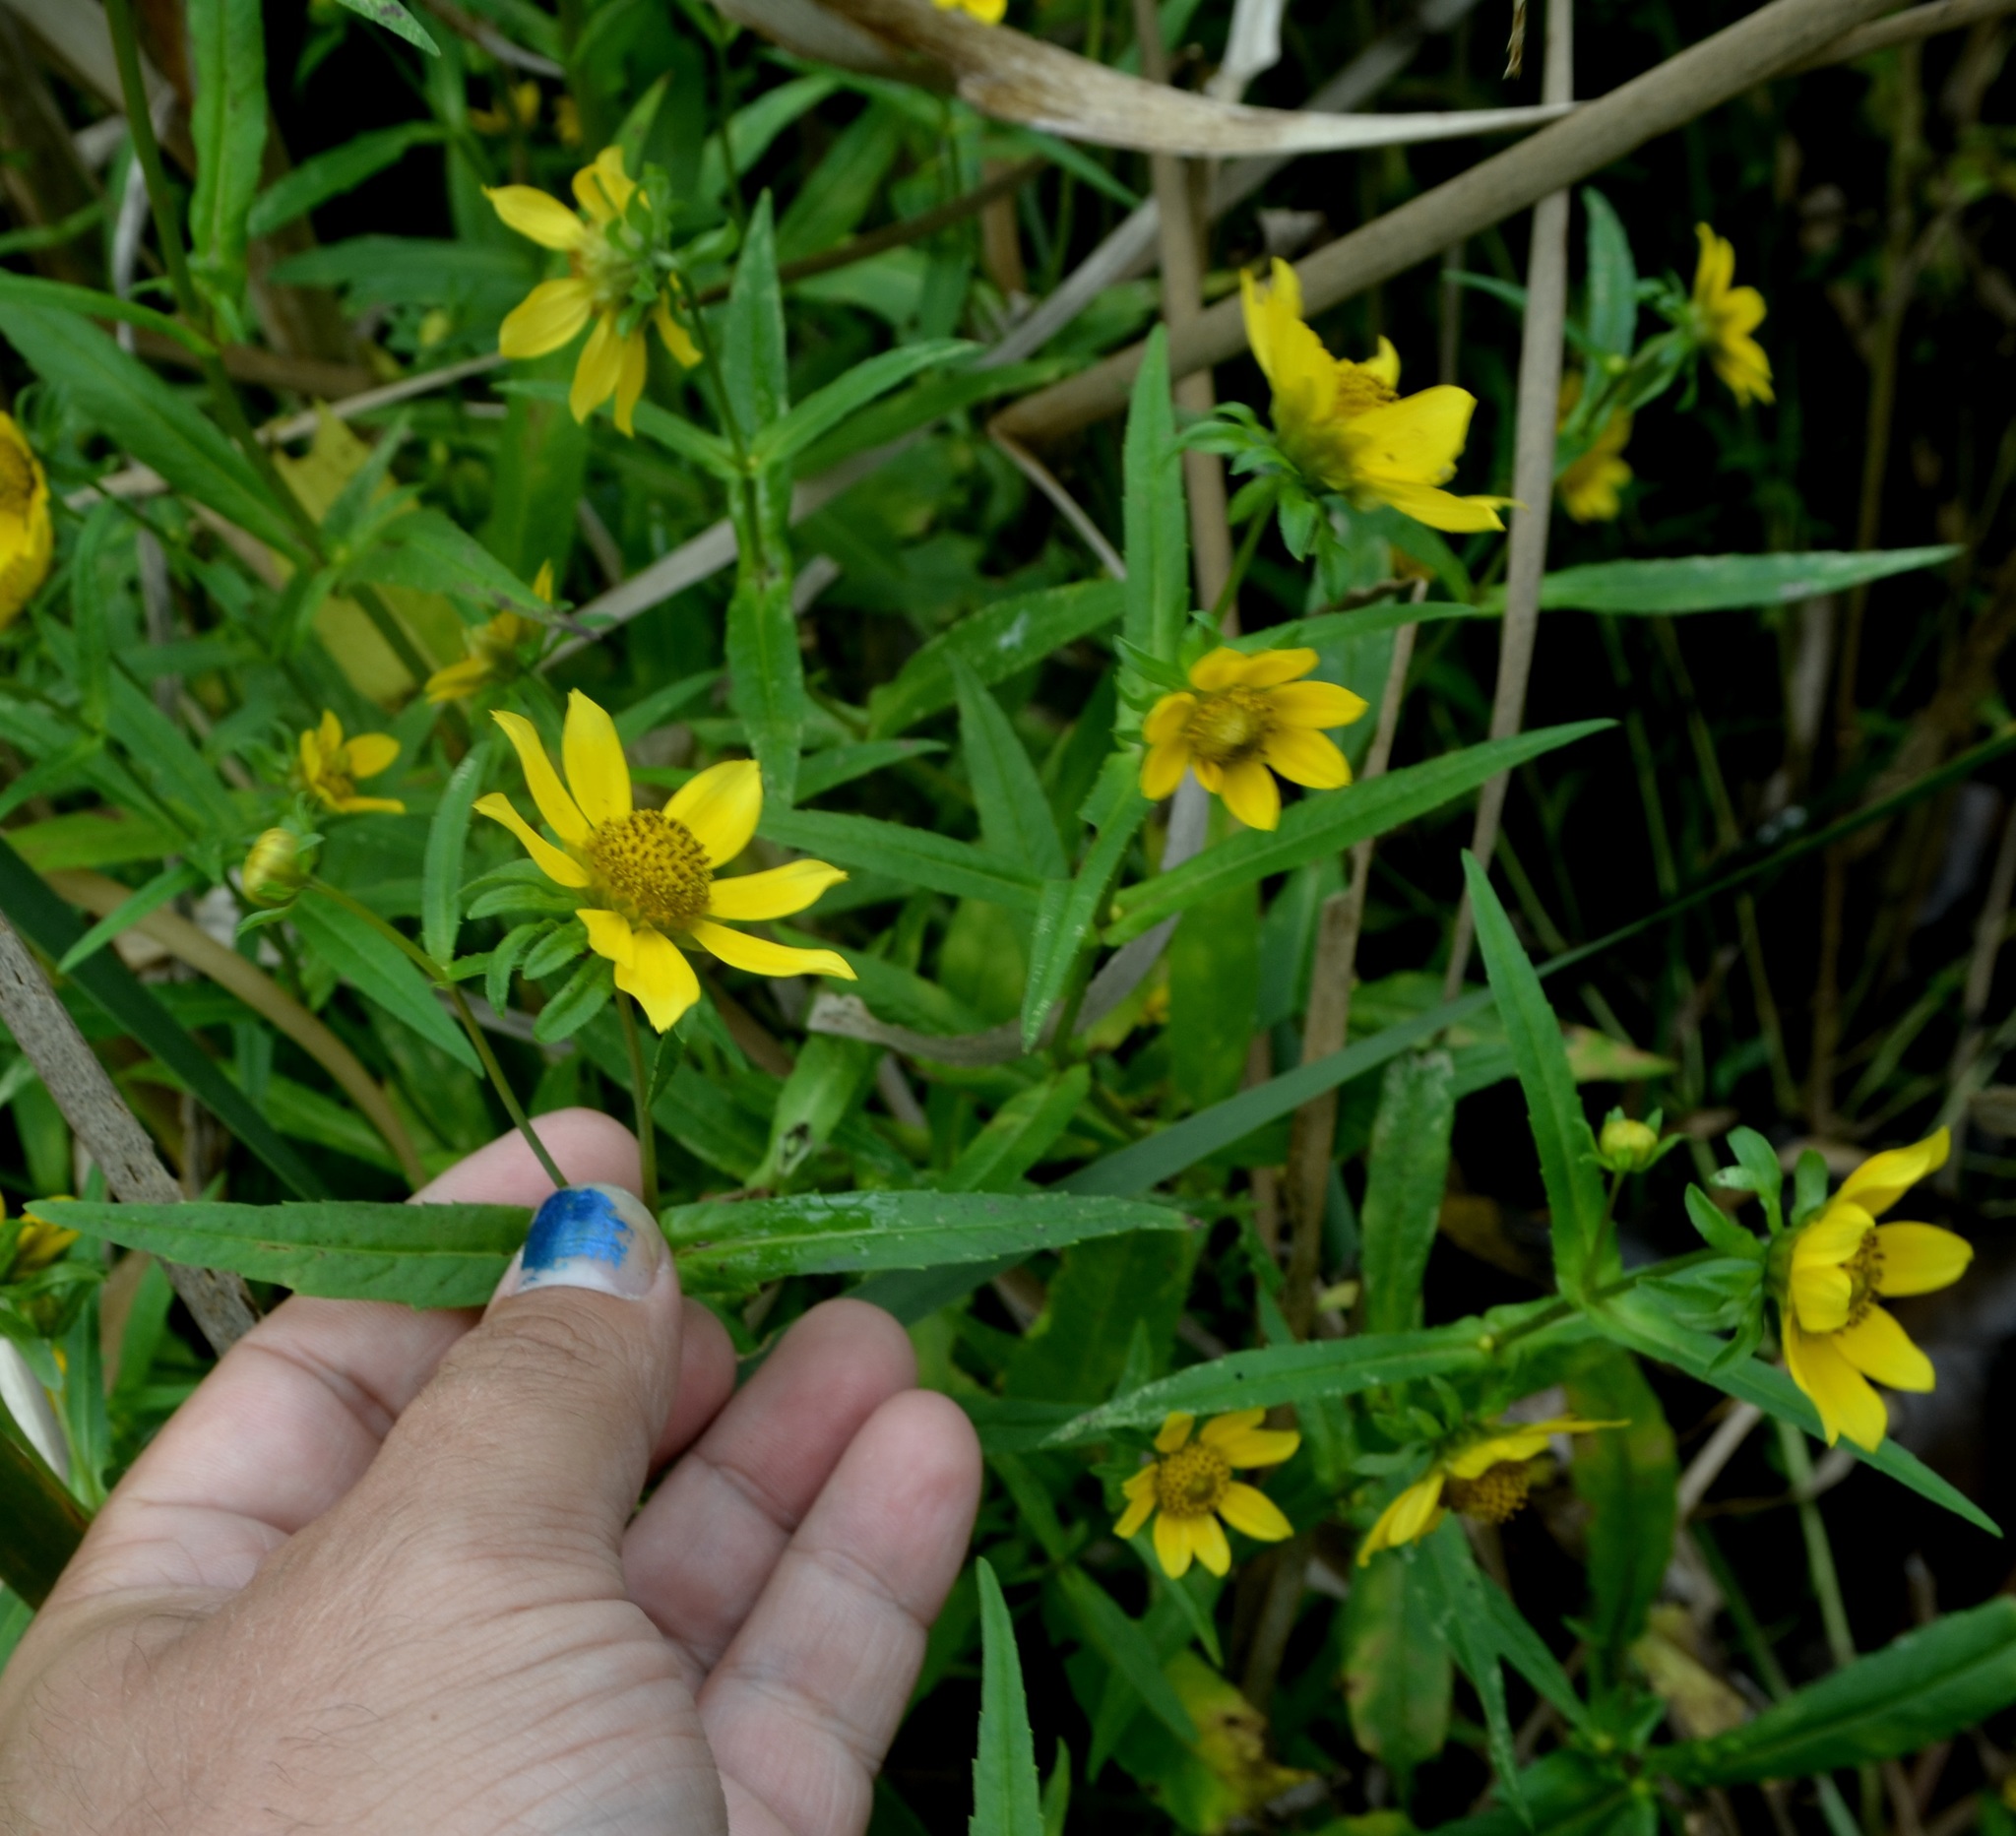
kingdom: Plantae
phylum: Tracheophyta
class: Magnoliopsida
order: Asterales
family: Asteraceae
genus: Bidens
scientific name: Bidens cernua
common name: Nodding bur-marigold
